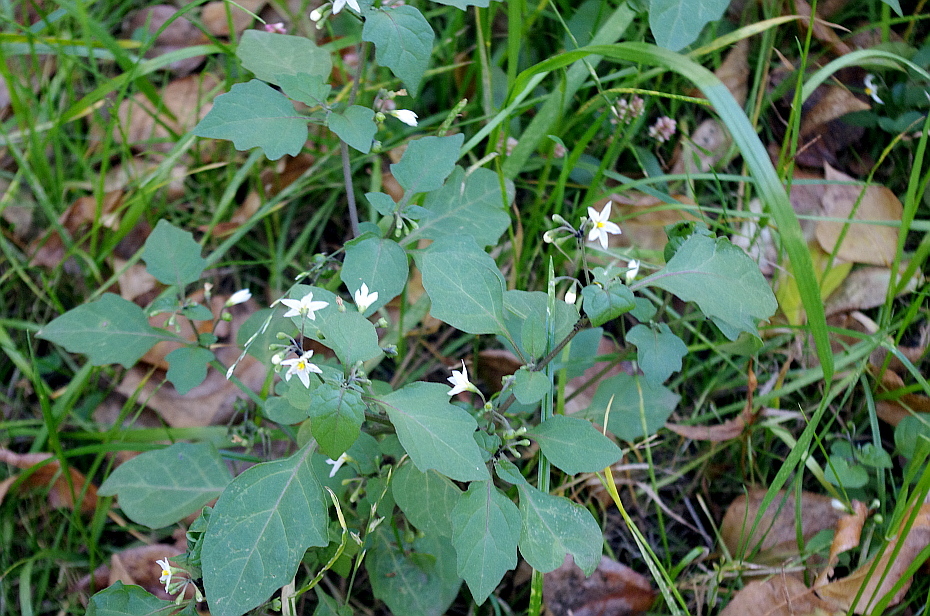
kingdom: Plantae
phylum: Tracheophyta
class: Magnoliopsida
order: Solanales
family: Solanaceae
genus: Solanum
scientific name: Solanum nigrum
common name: Black nightshade
